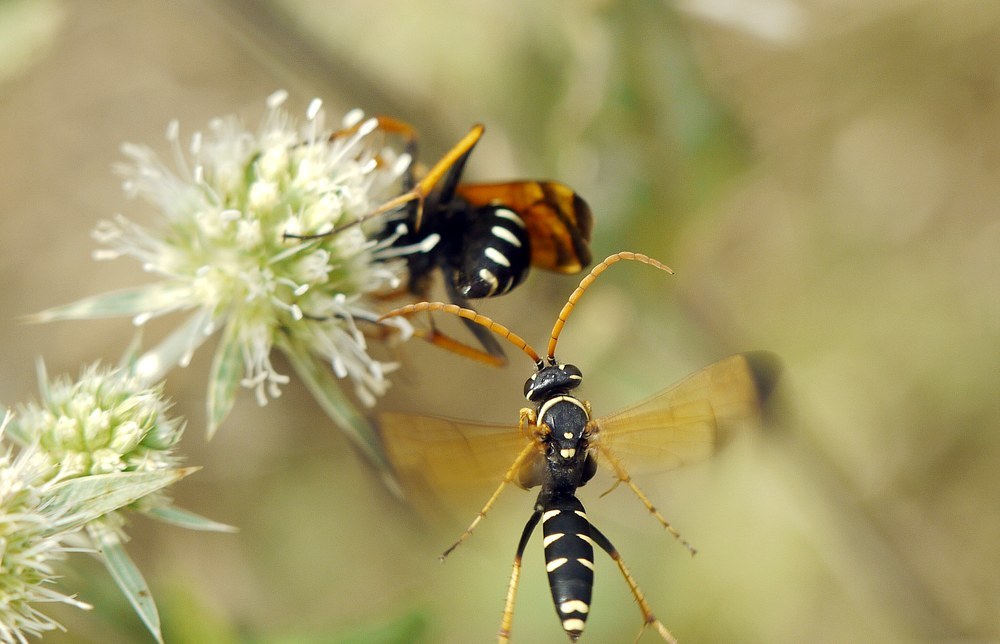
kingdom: Animalia
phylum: Arthropoda
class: Insecta
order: Hymenoptera
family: Pompilidae
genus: Parabatozonus
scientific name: Parabatozonus lacerticida
